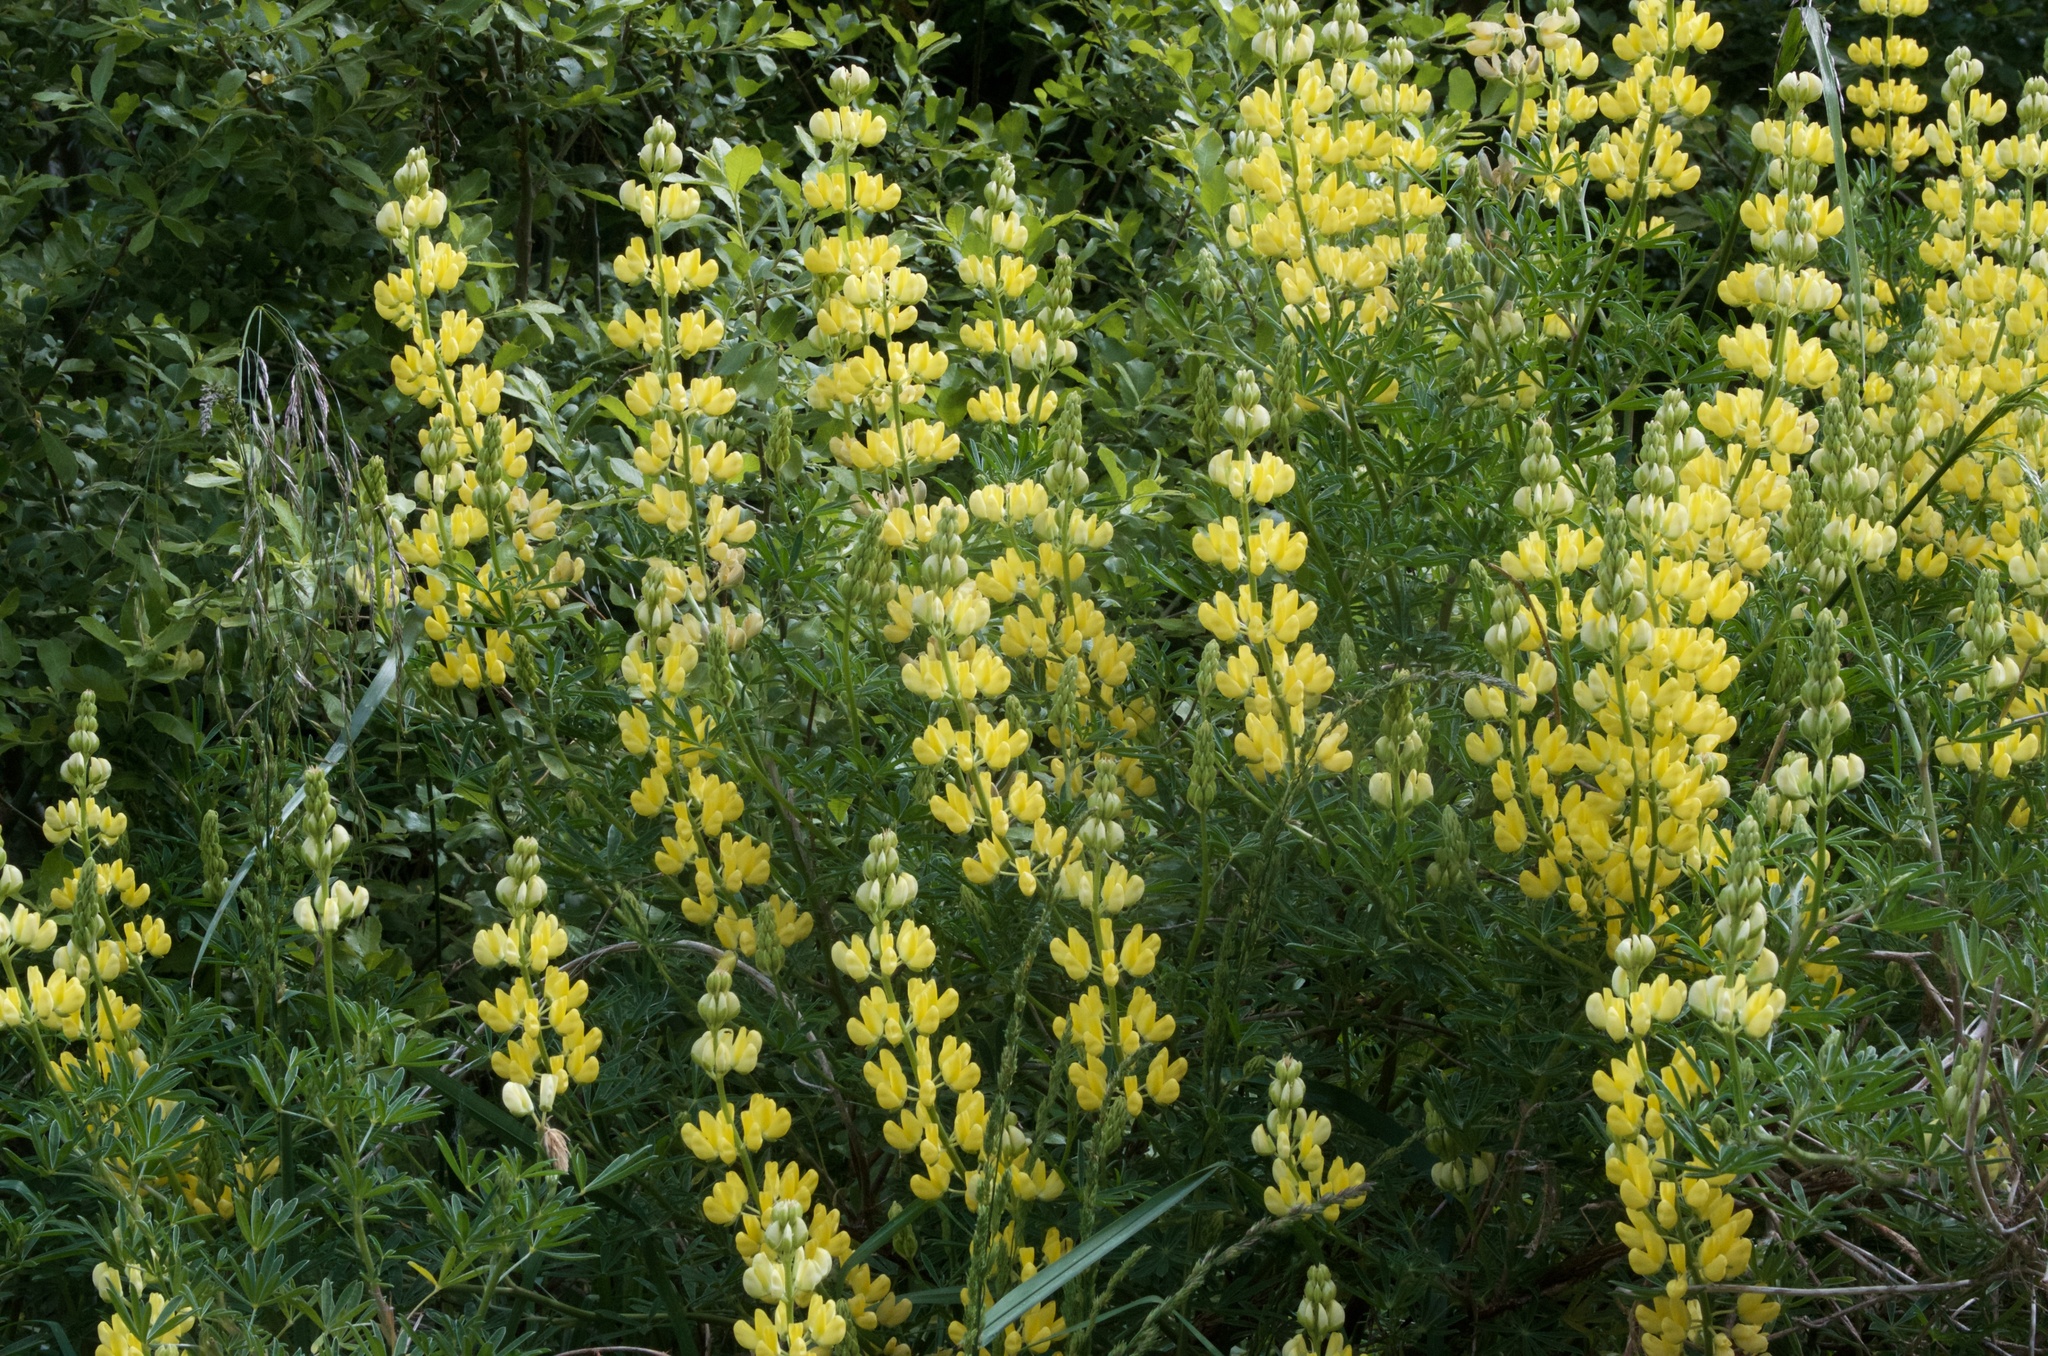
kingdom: Plantae
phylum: Tracheophyta
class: Magnoliopsida
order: Fabales
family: Fabaceae
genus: Lupinus
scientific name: Lupinus arboreus
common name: Yellow bush lupine
